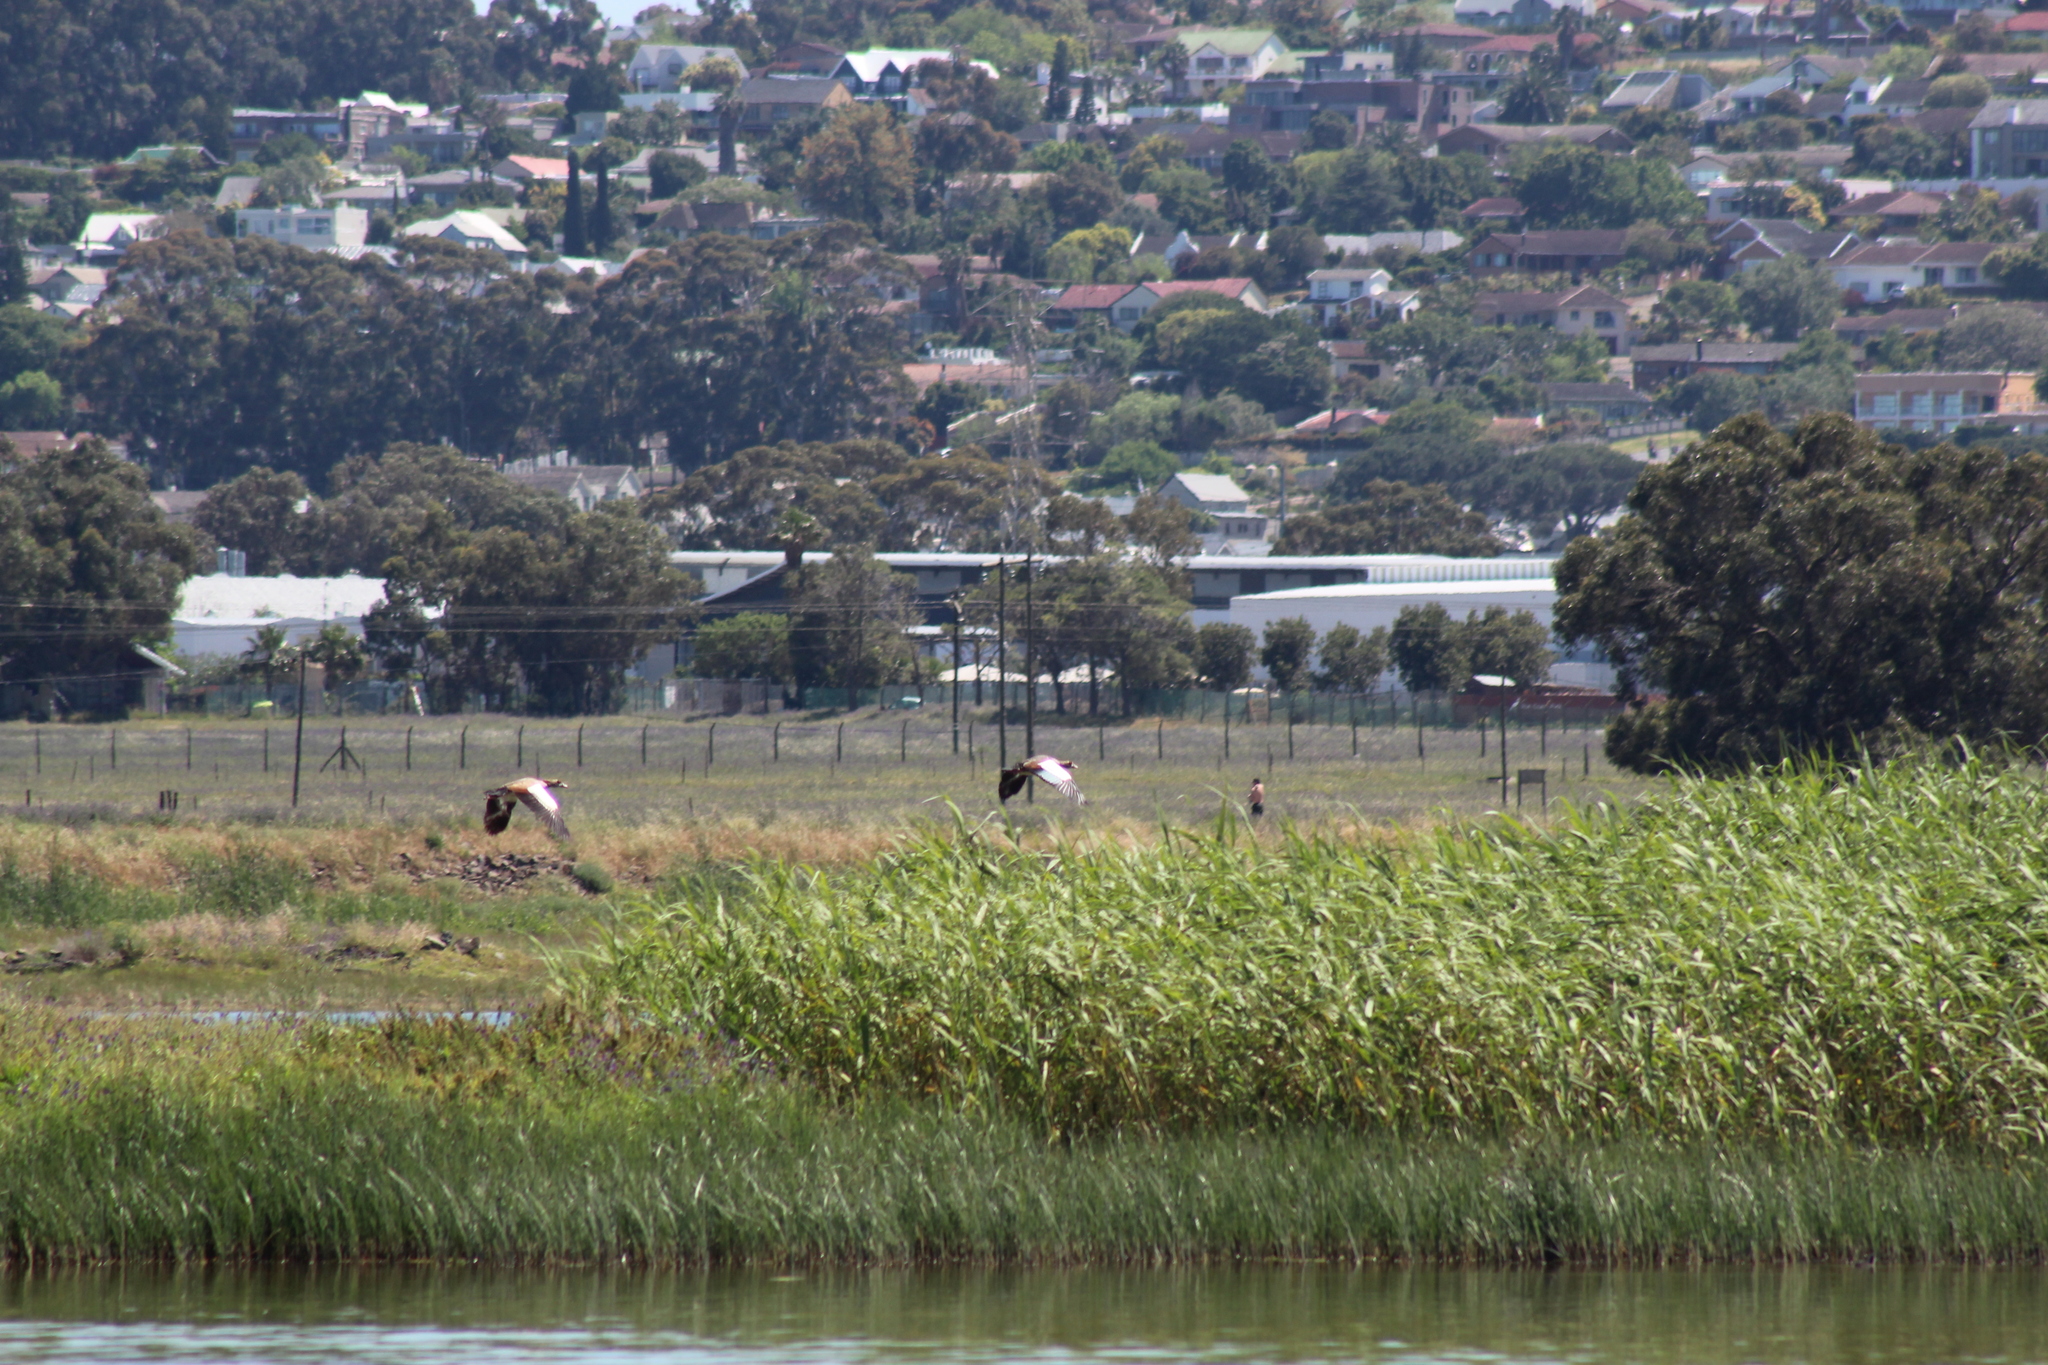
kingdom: Animalia
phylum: Chordata
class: Aves
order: Anseriformes
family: Anatidae
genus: Alopochen
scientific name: Alopochen aegyptiaca
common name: Egyptian goose
